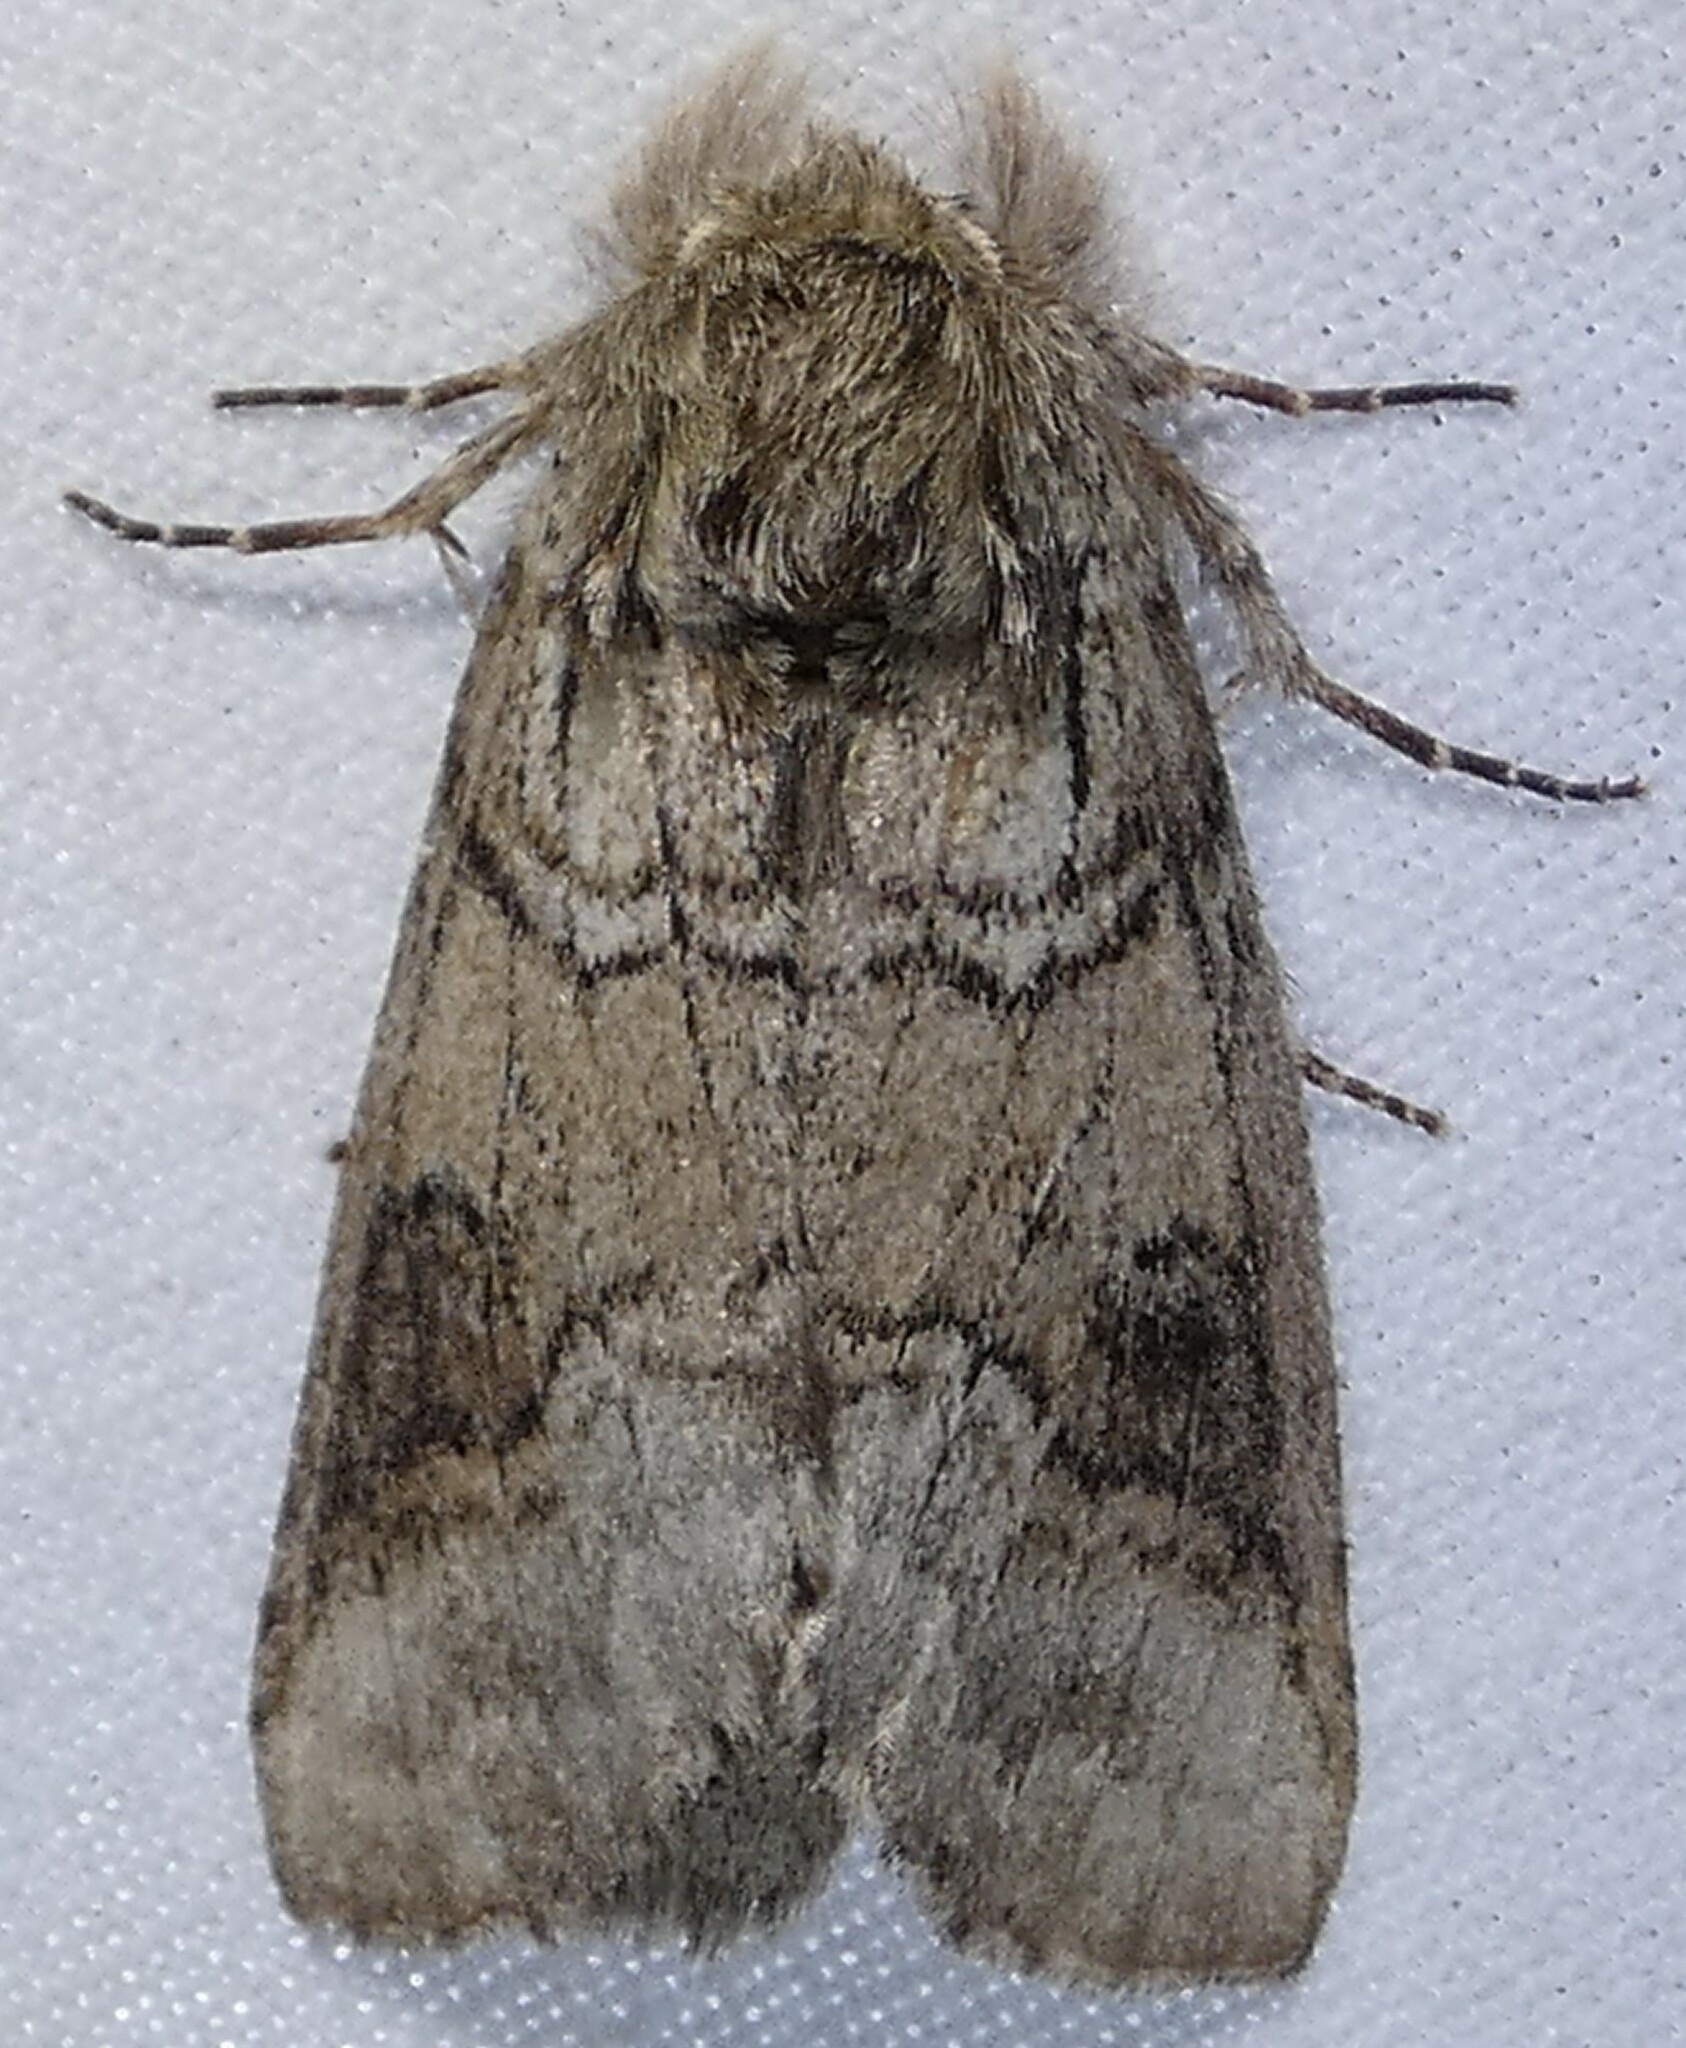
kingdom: Animalia
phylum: Arthropoda
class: Insecta
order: Lepidoptera
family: Notodontidae
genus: Lochmaeus
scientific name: Lochmaeus bilineata
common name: Double-lined prominent
